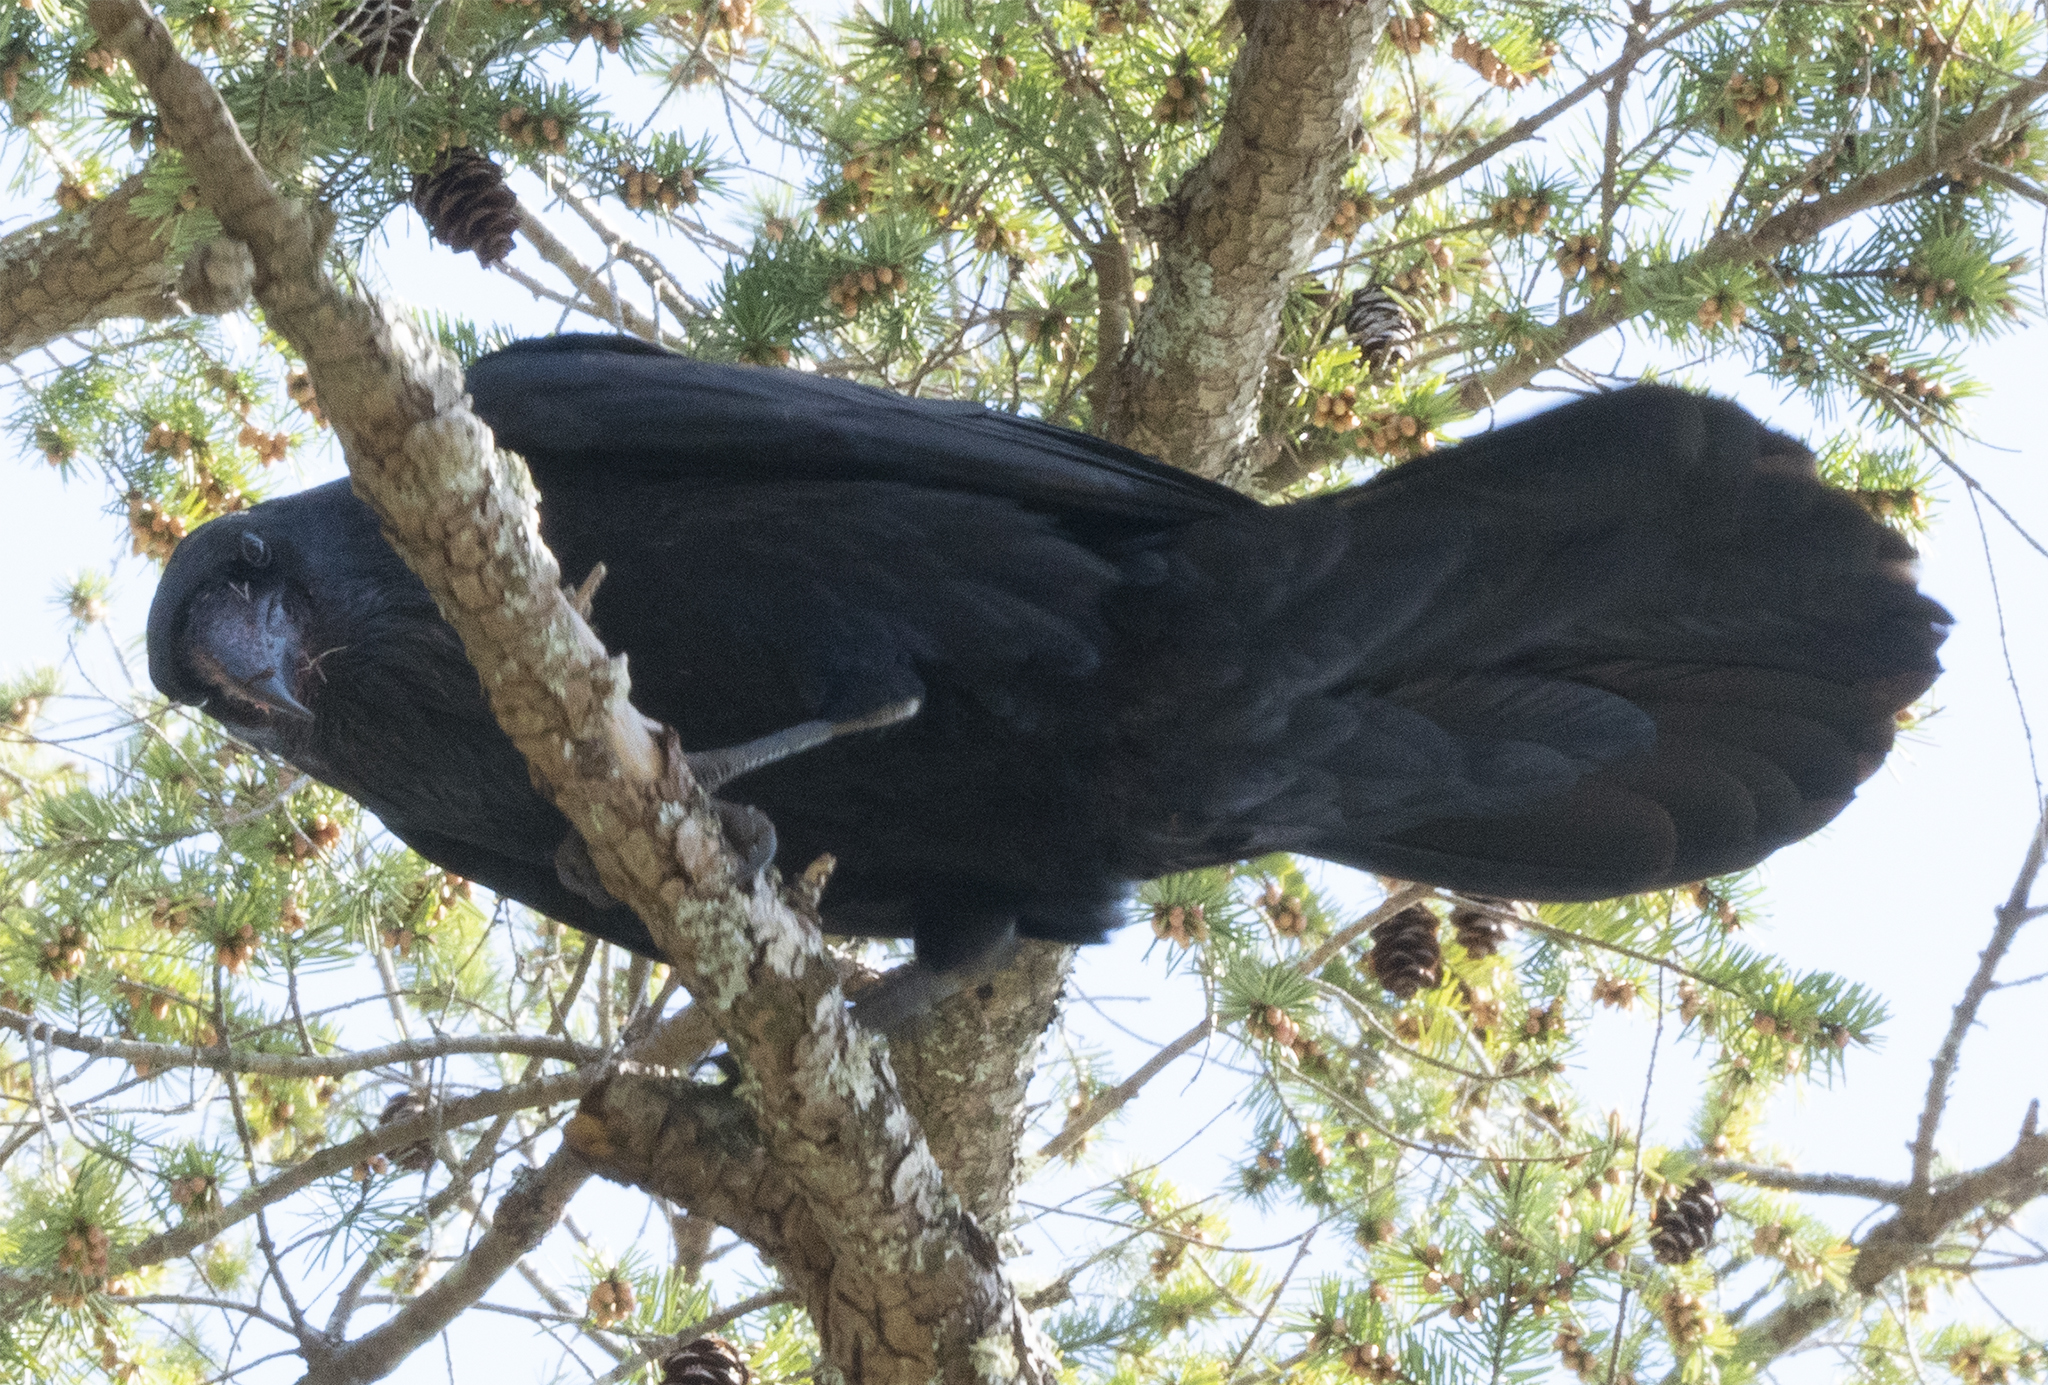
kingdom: Animalia
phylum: Chordata
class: Aves
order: Passeriformes
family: Corvidae
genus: Corvus
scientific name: Corvus corax
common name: Common raven
